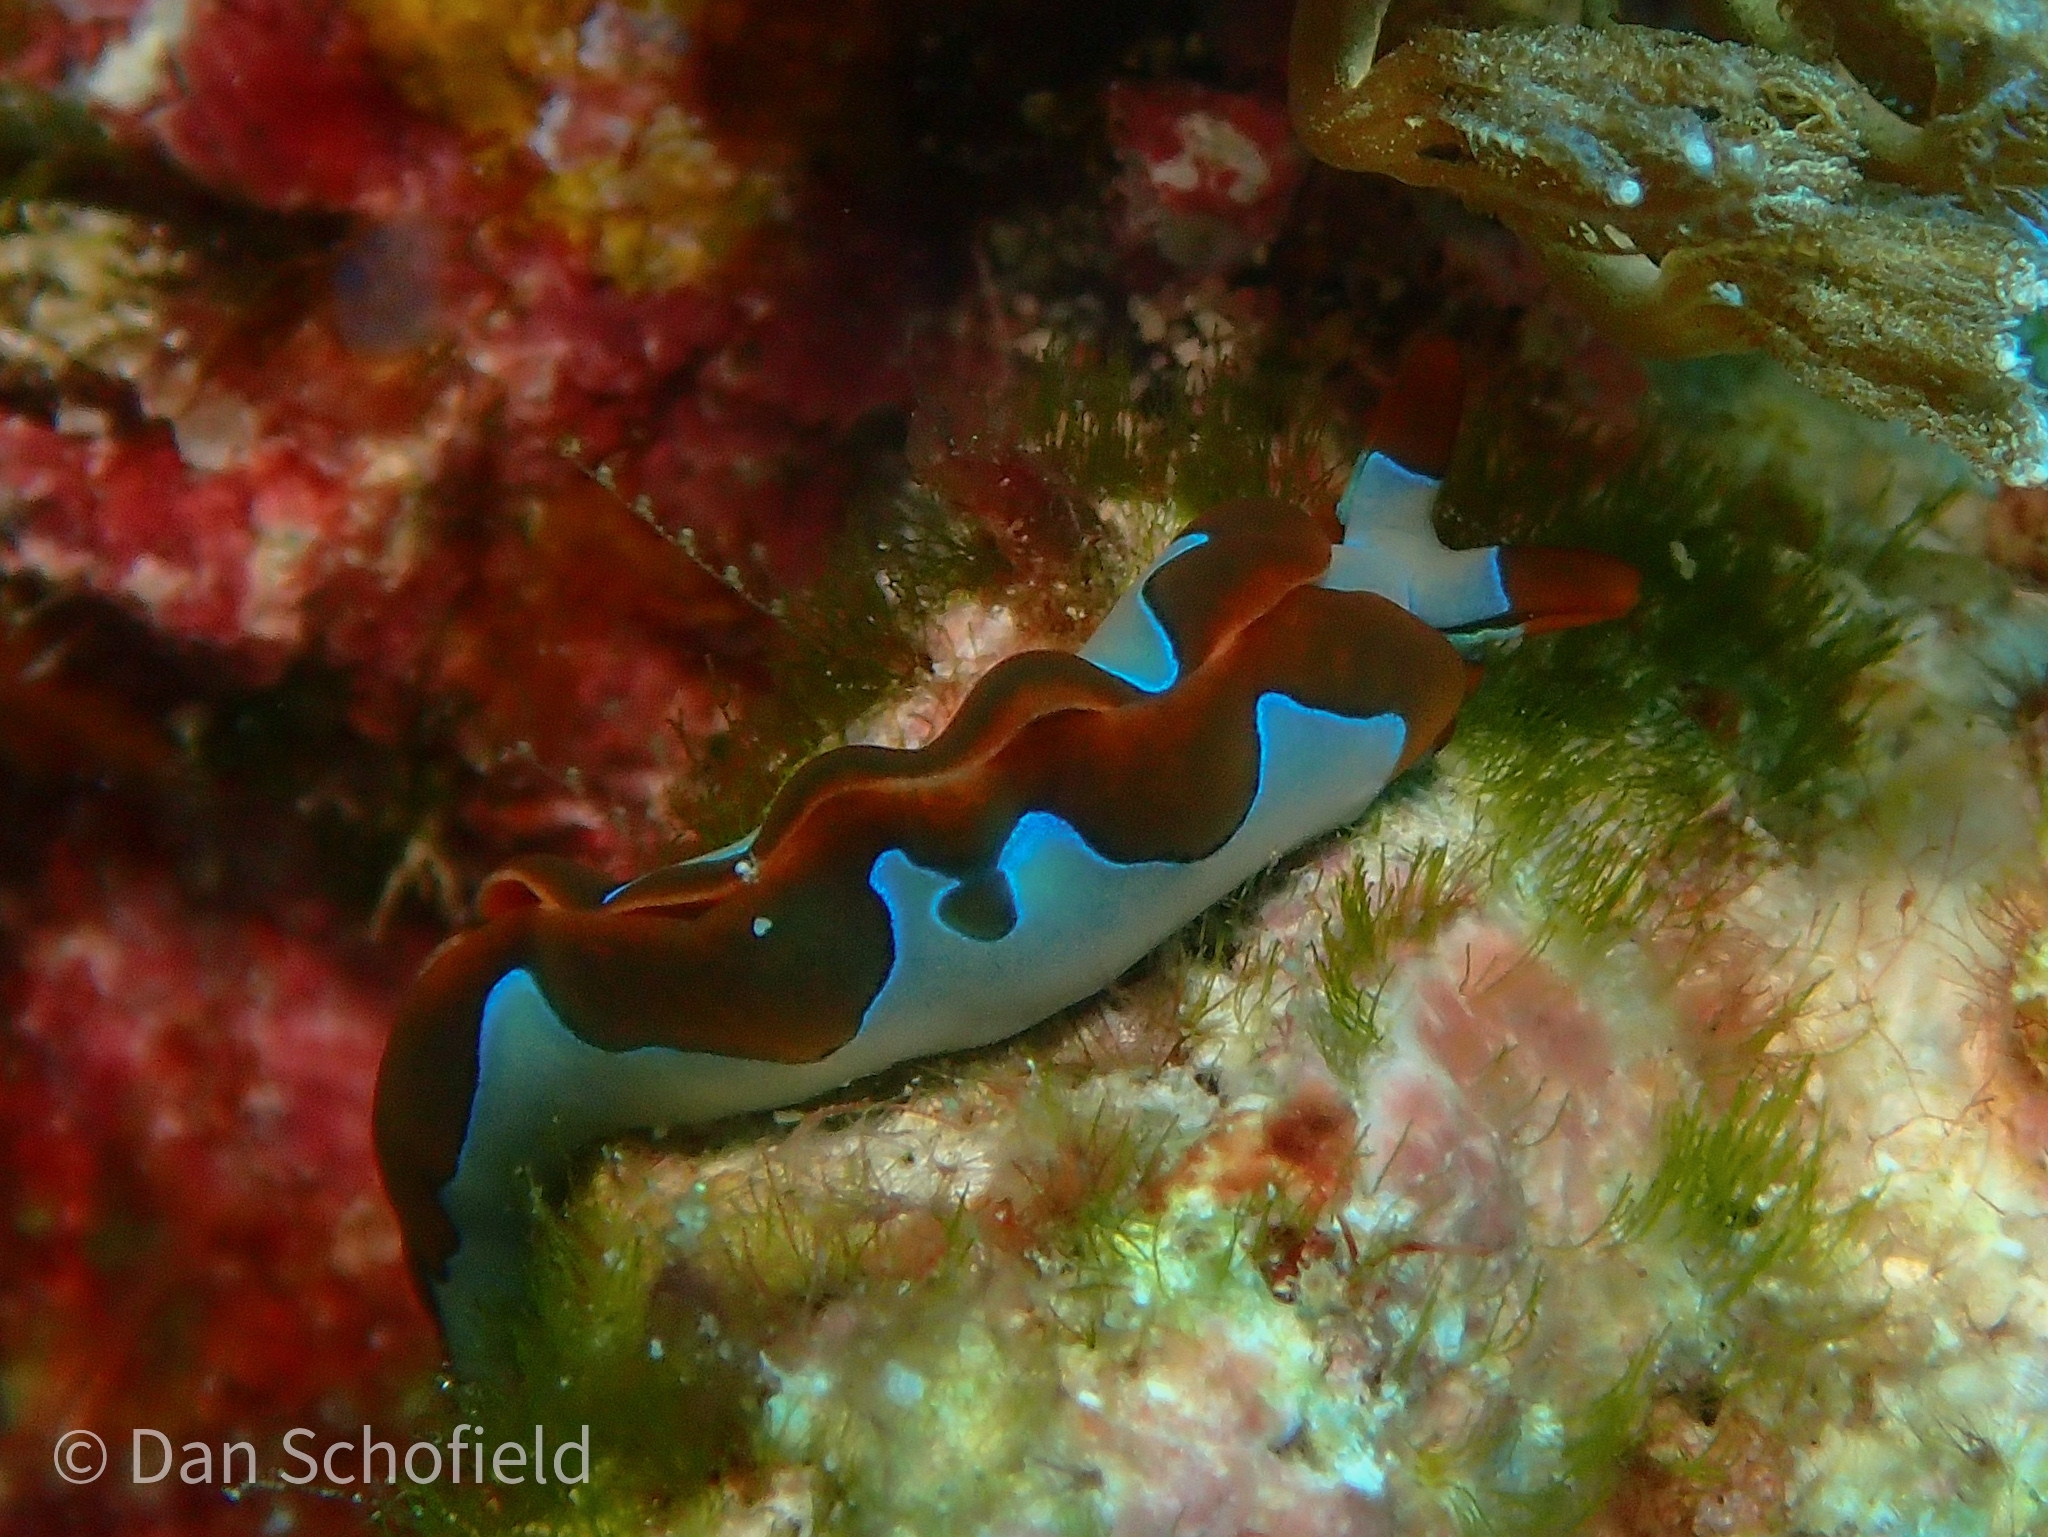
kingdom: Animalia
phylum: Mollusca
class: Gastropoda
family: Plakobranchidae
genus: Thuridilla
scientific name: Thuridilla undula
